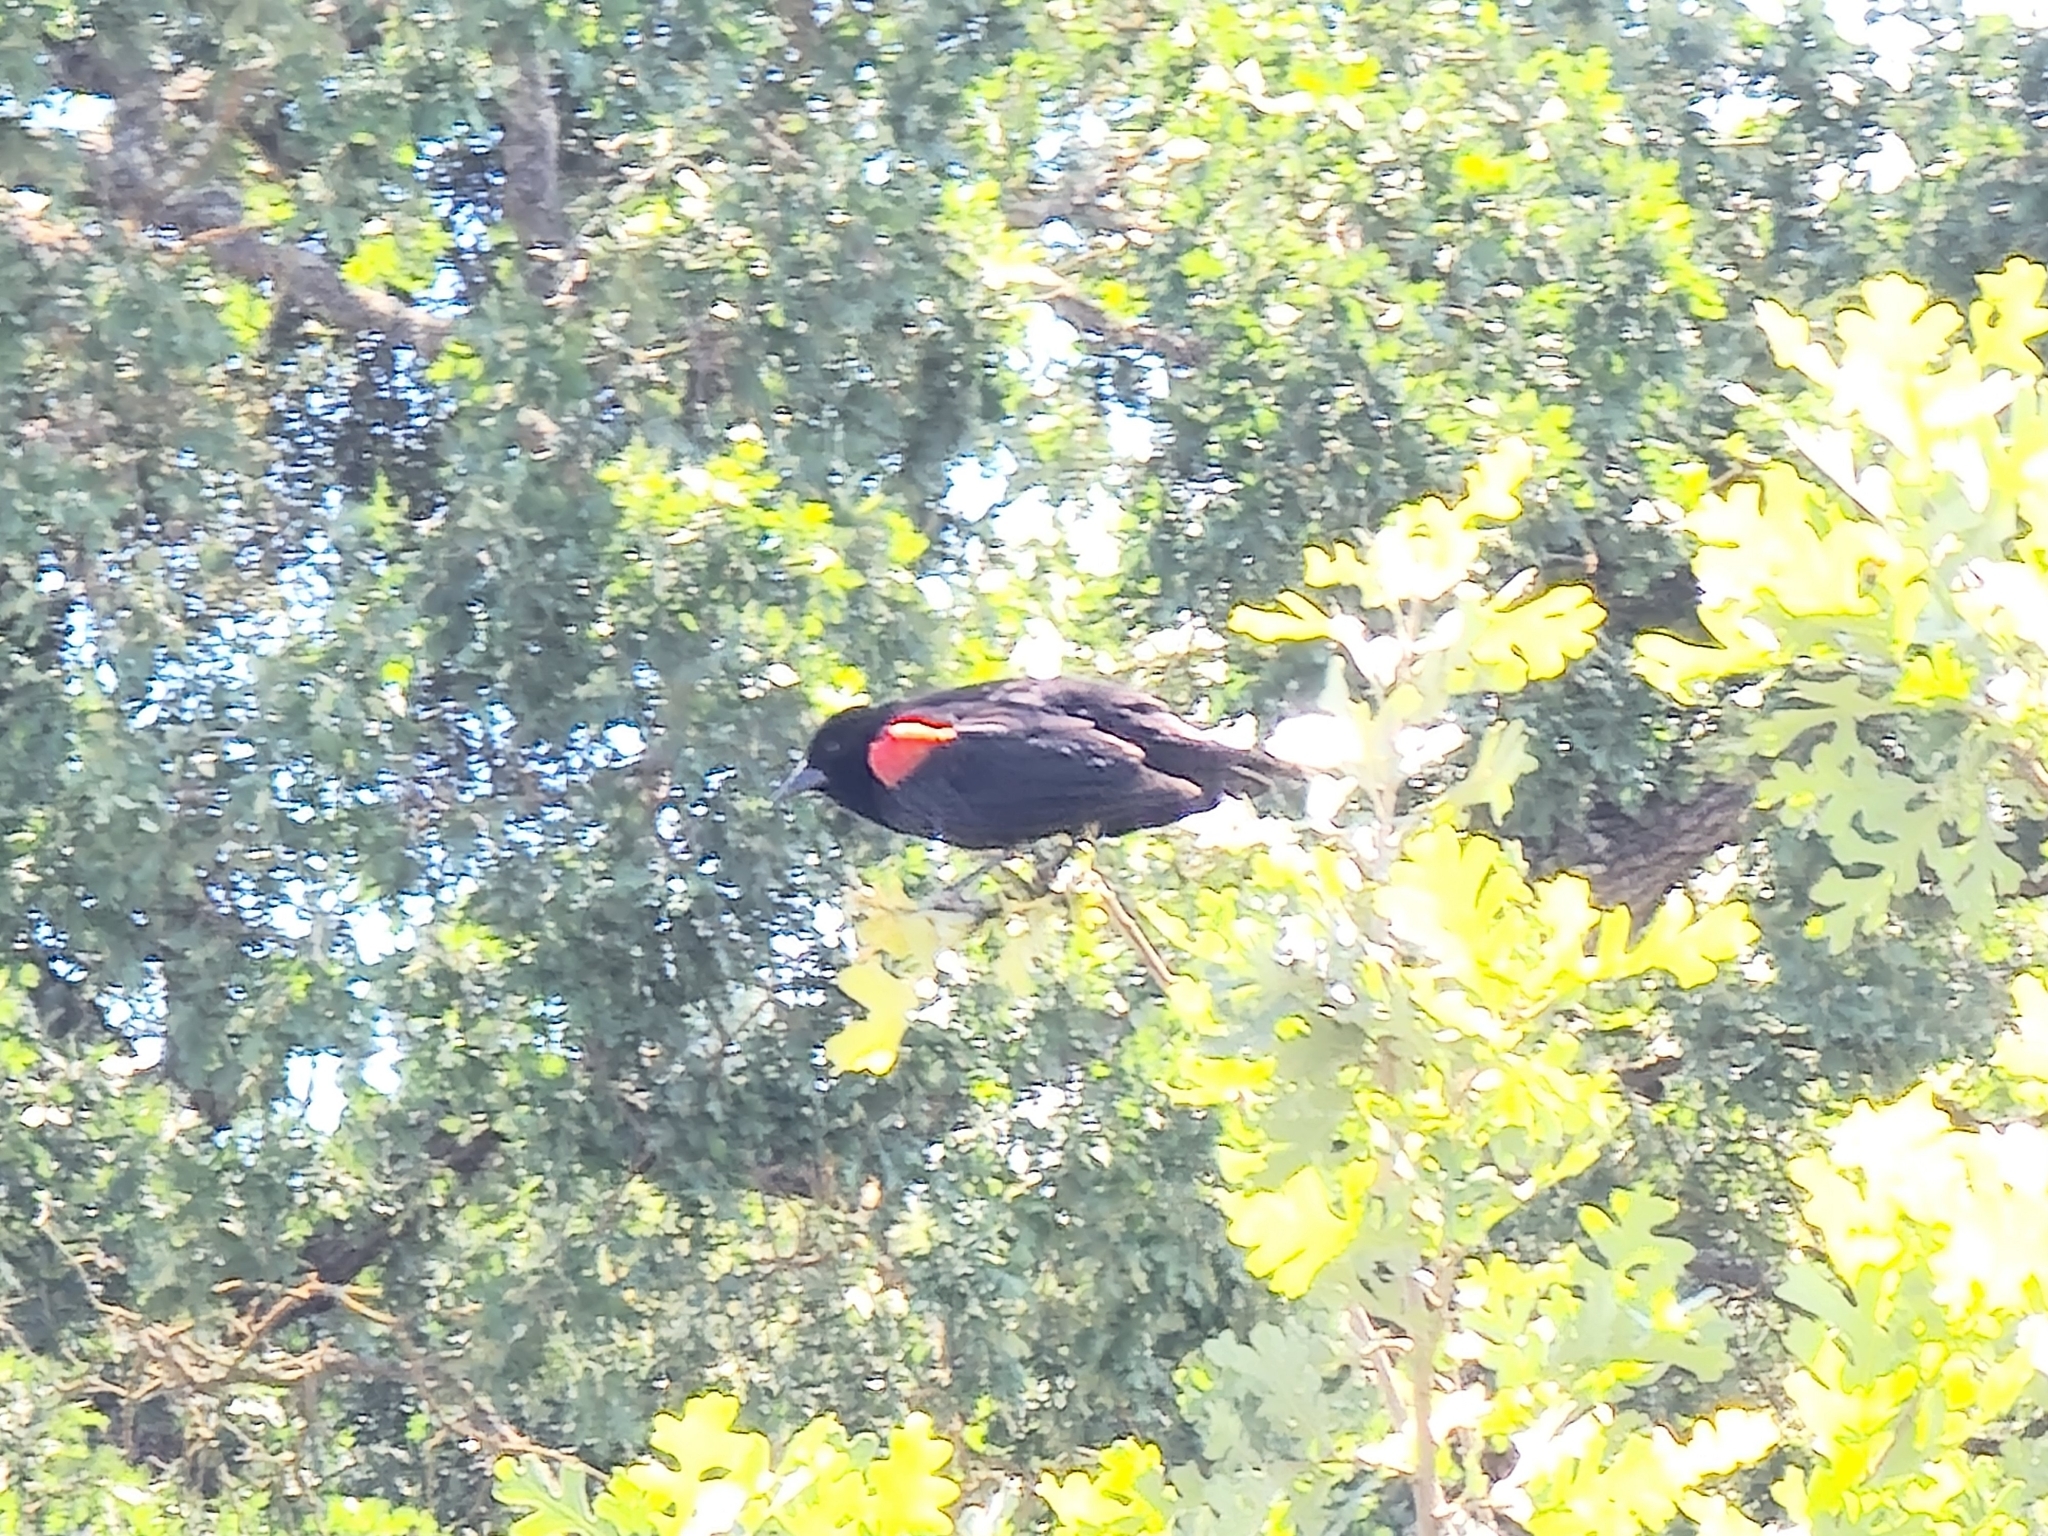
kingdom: Animalia
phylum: Chordata
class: Aves
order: Passeriformes
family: Icteridae
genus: Agelaius
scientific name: Agelaius phoeniceus
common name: Red-winged blackbird
